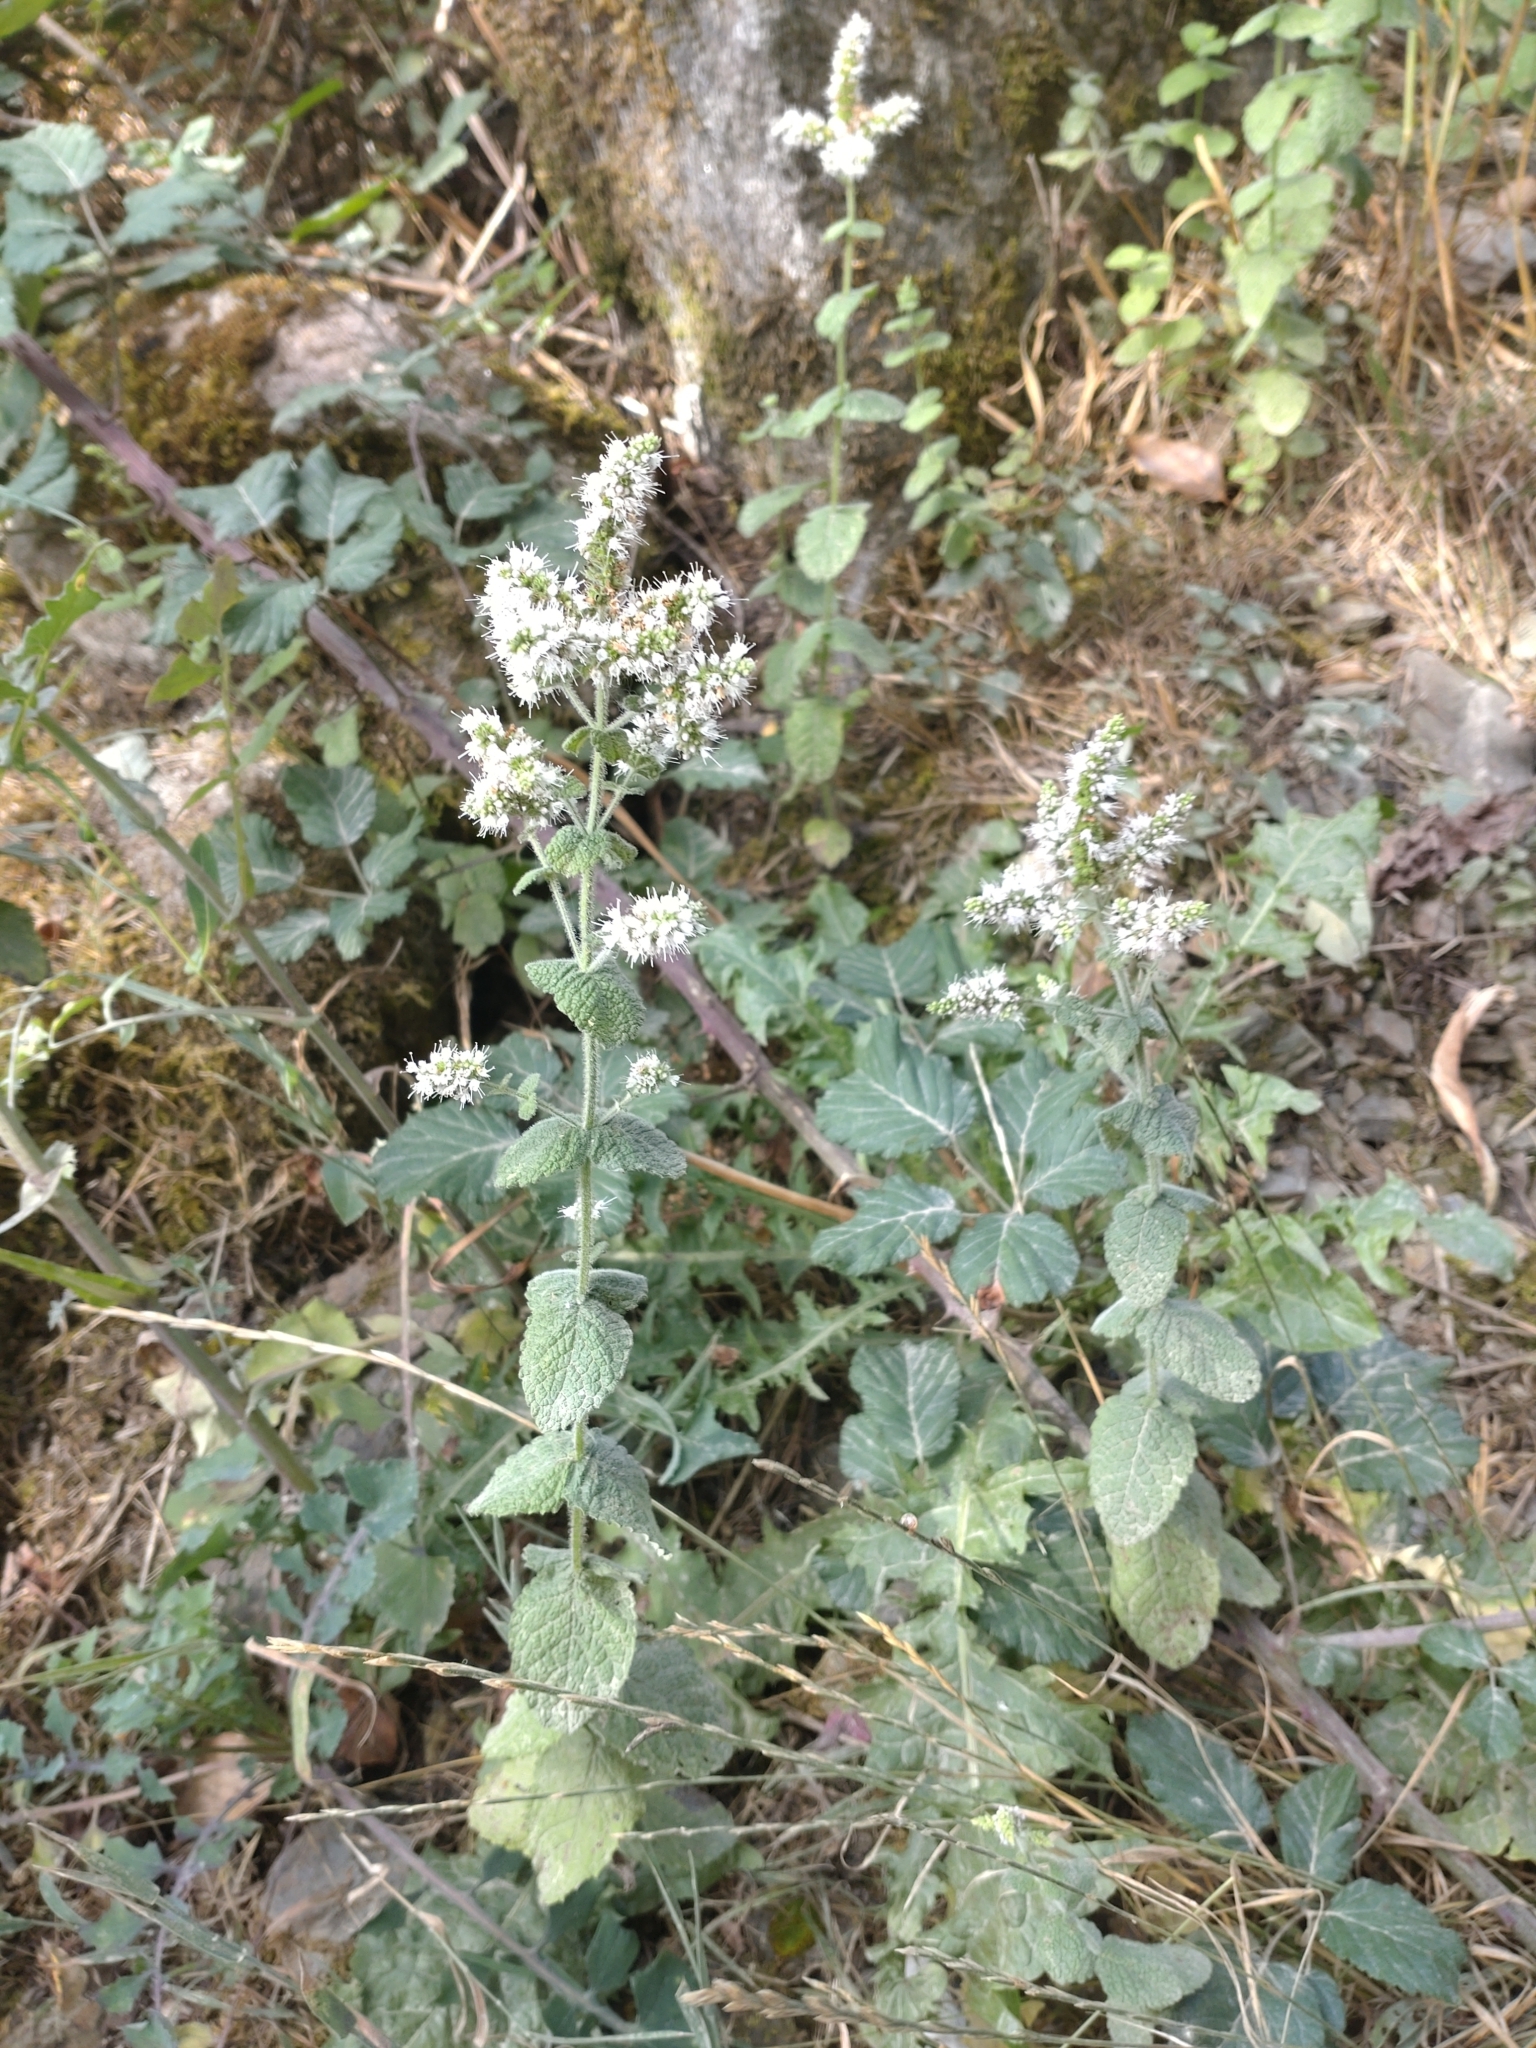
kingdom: Plantae
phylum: Tracheophyta
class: Magnoliopsida
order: Lamiales
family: Lamiaceae
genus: Mentha
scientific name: Mentha suaveolens
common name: Apple mint
